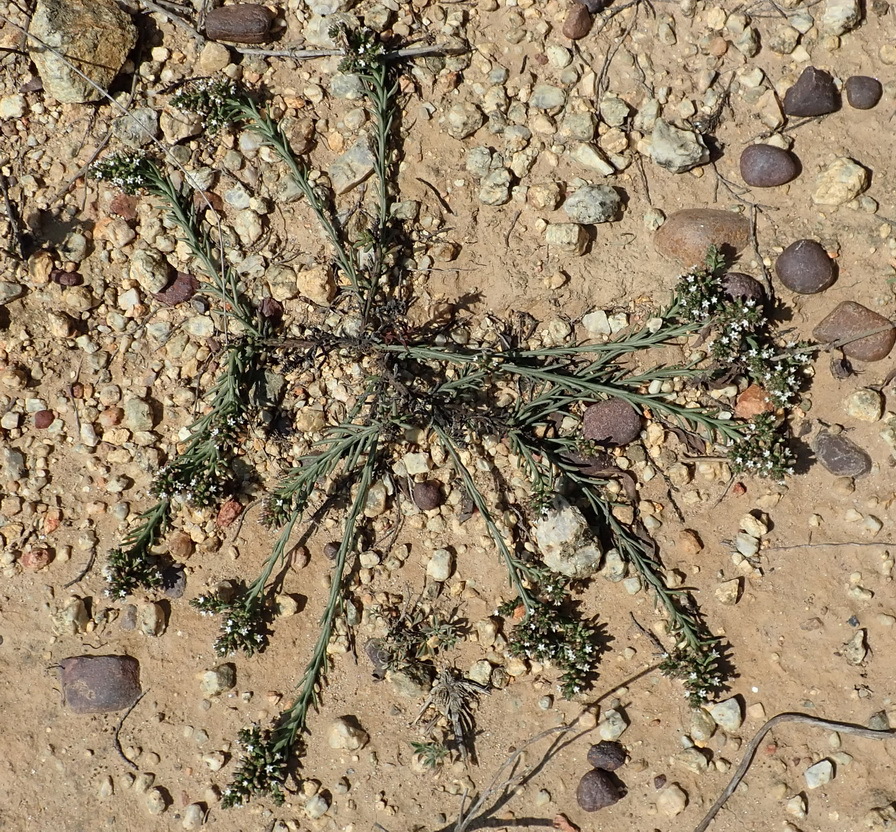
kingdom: Plantae
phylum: Tracheophyta
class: Magnoliopsida
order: Santalales
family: Thesiaceae
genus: Thesium
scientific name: Thesium funale
